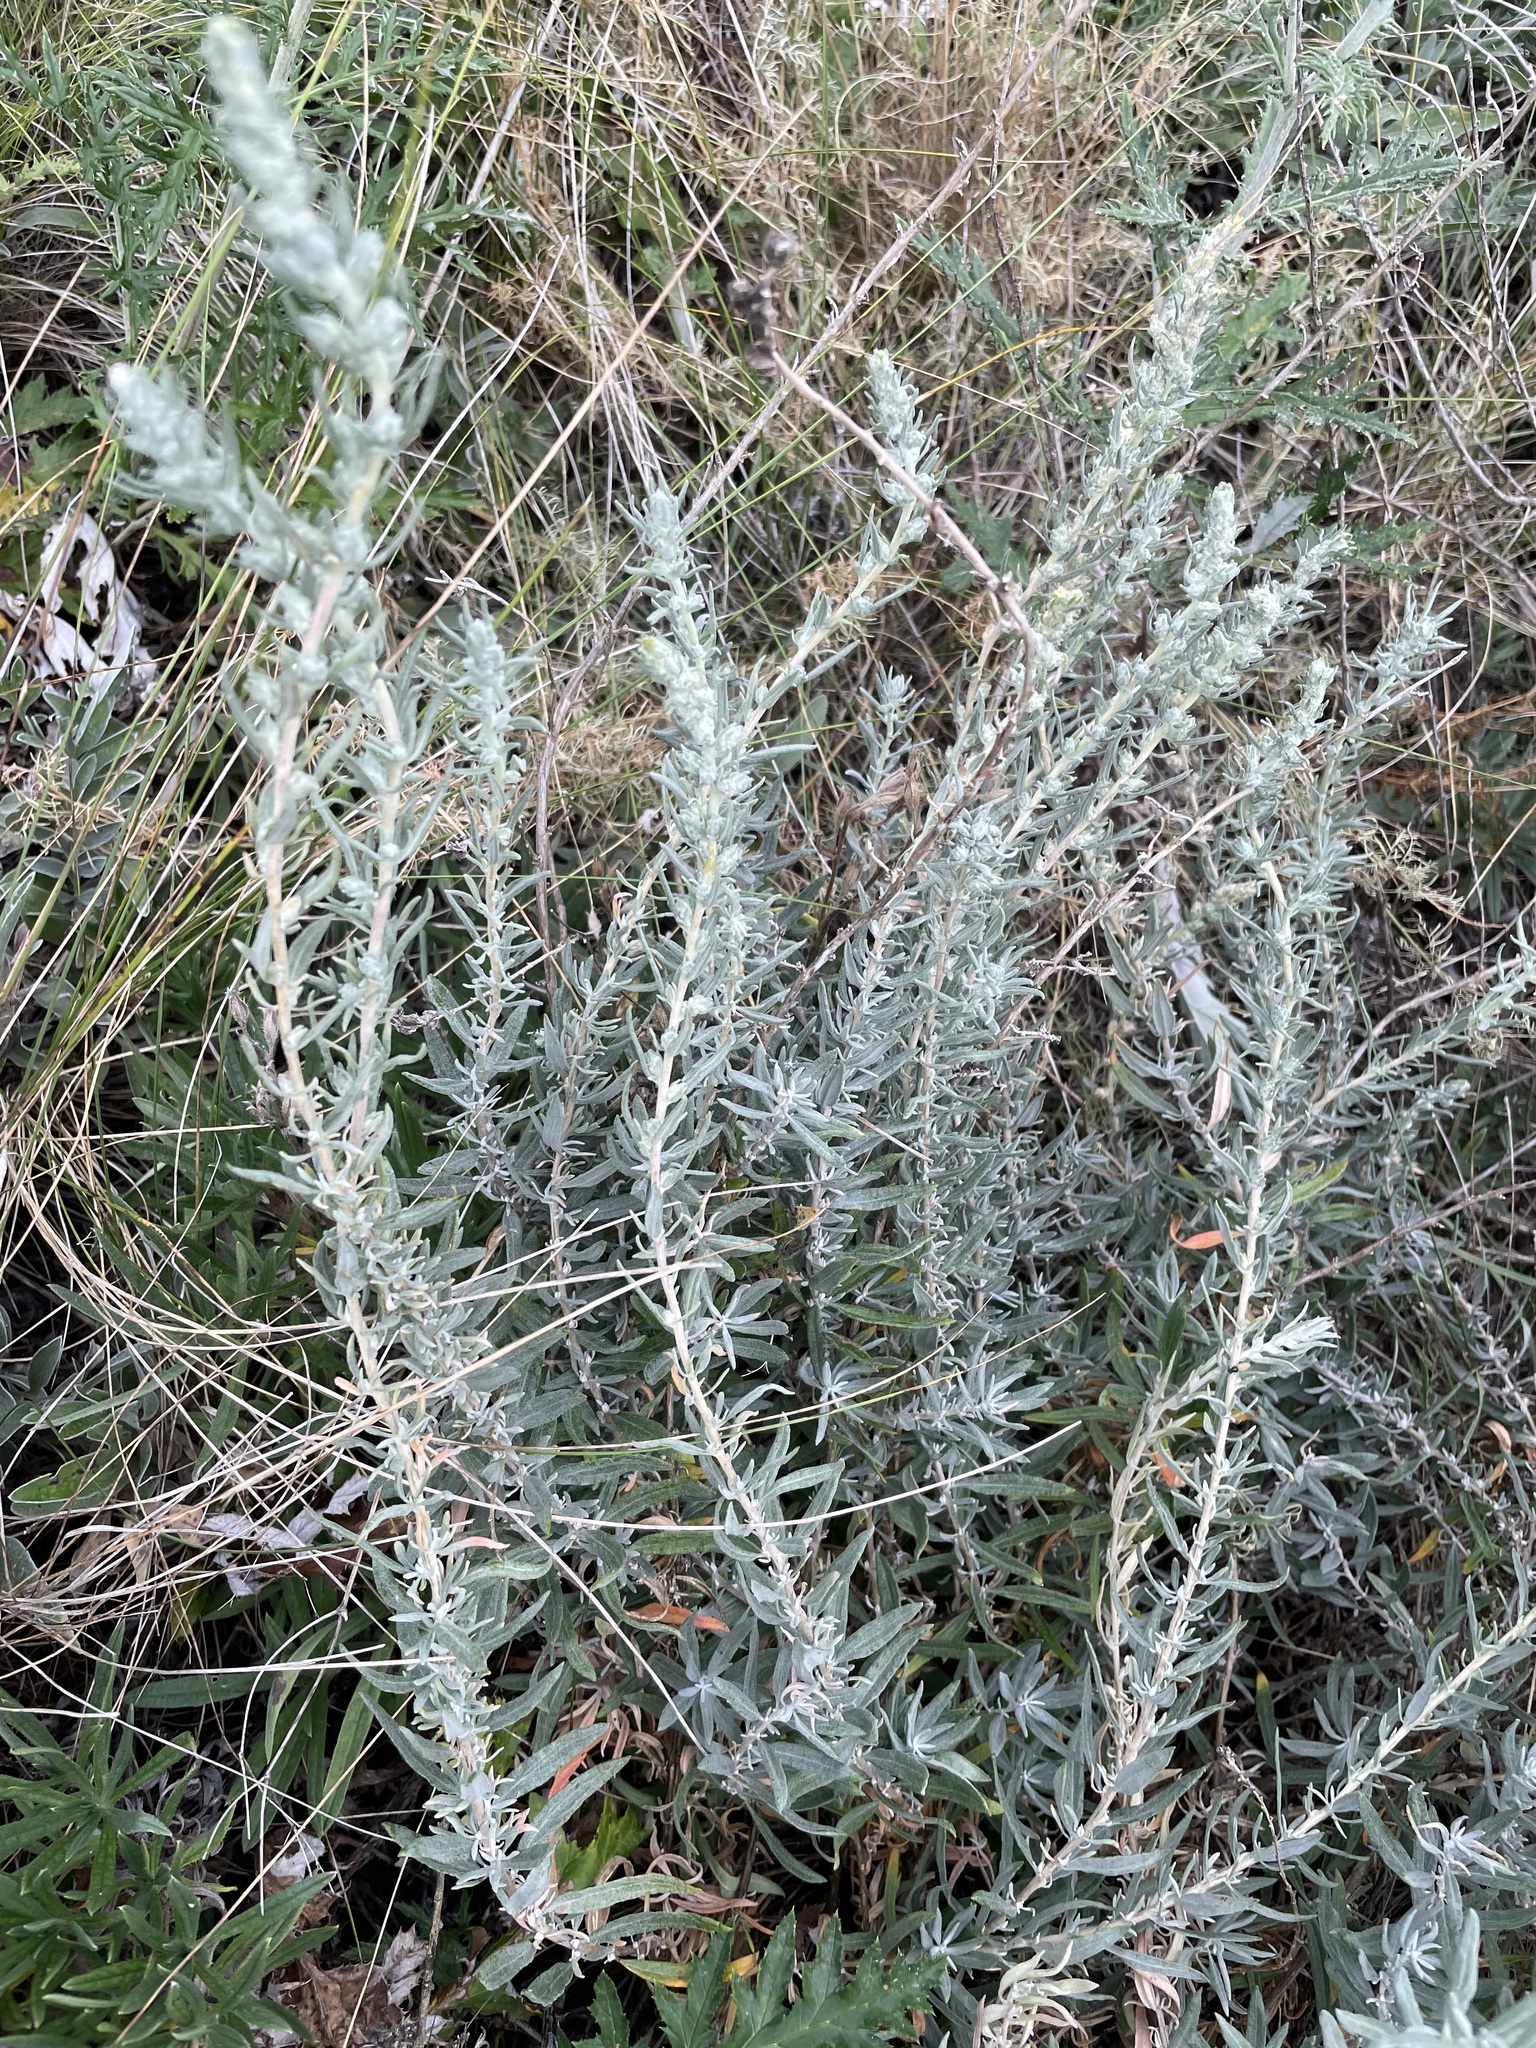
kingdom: Plantae
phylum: Tracheophyta
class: Magnoliopsida
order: Caryophyllales
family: Amaranthaceae
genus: Krascheninnikovia
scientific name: Krascheninnikovia ceratoides
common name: Pamirian winterfat
